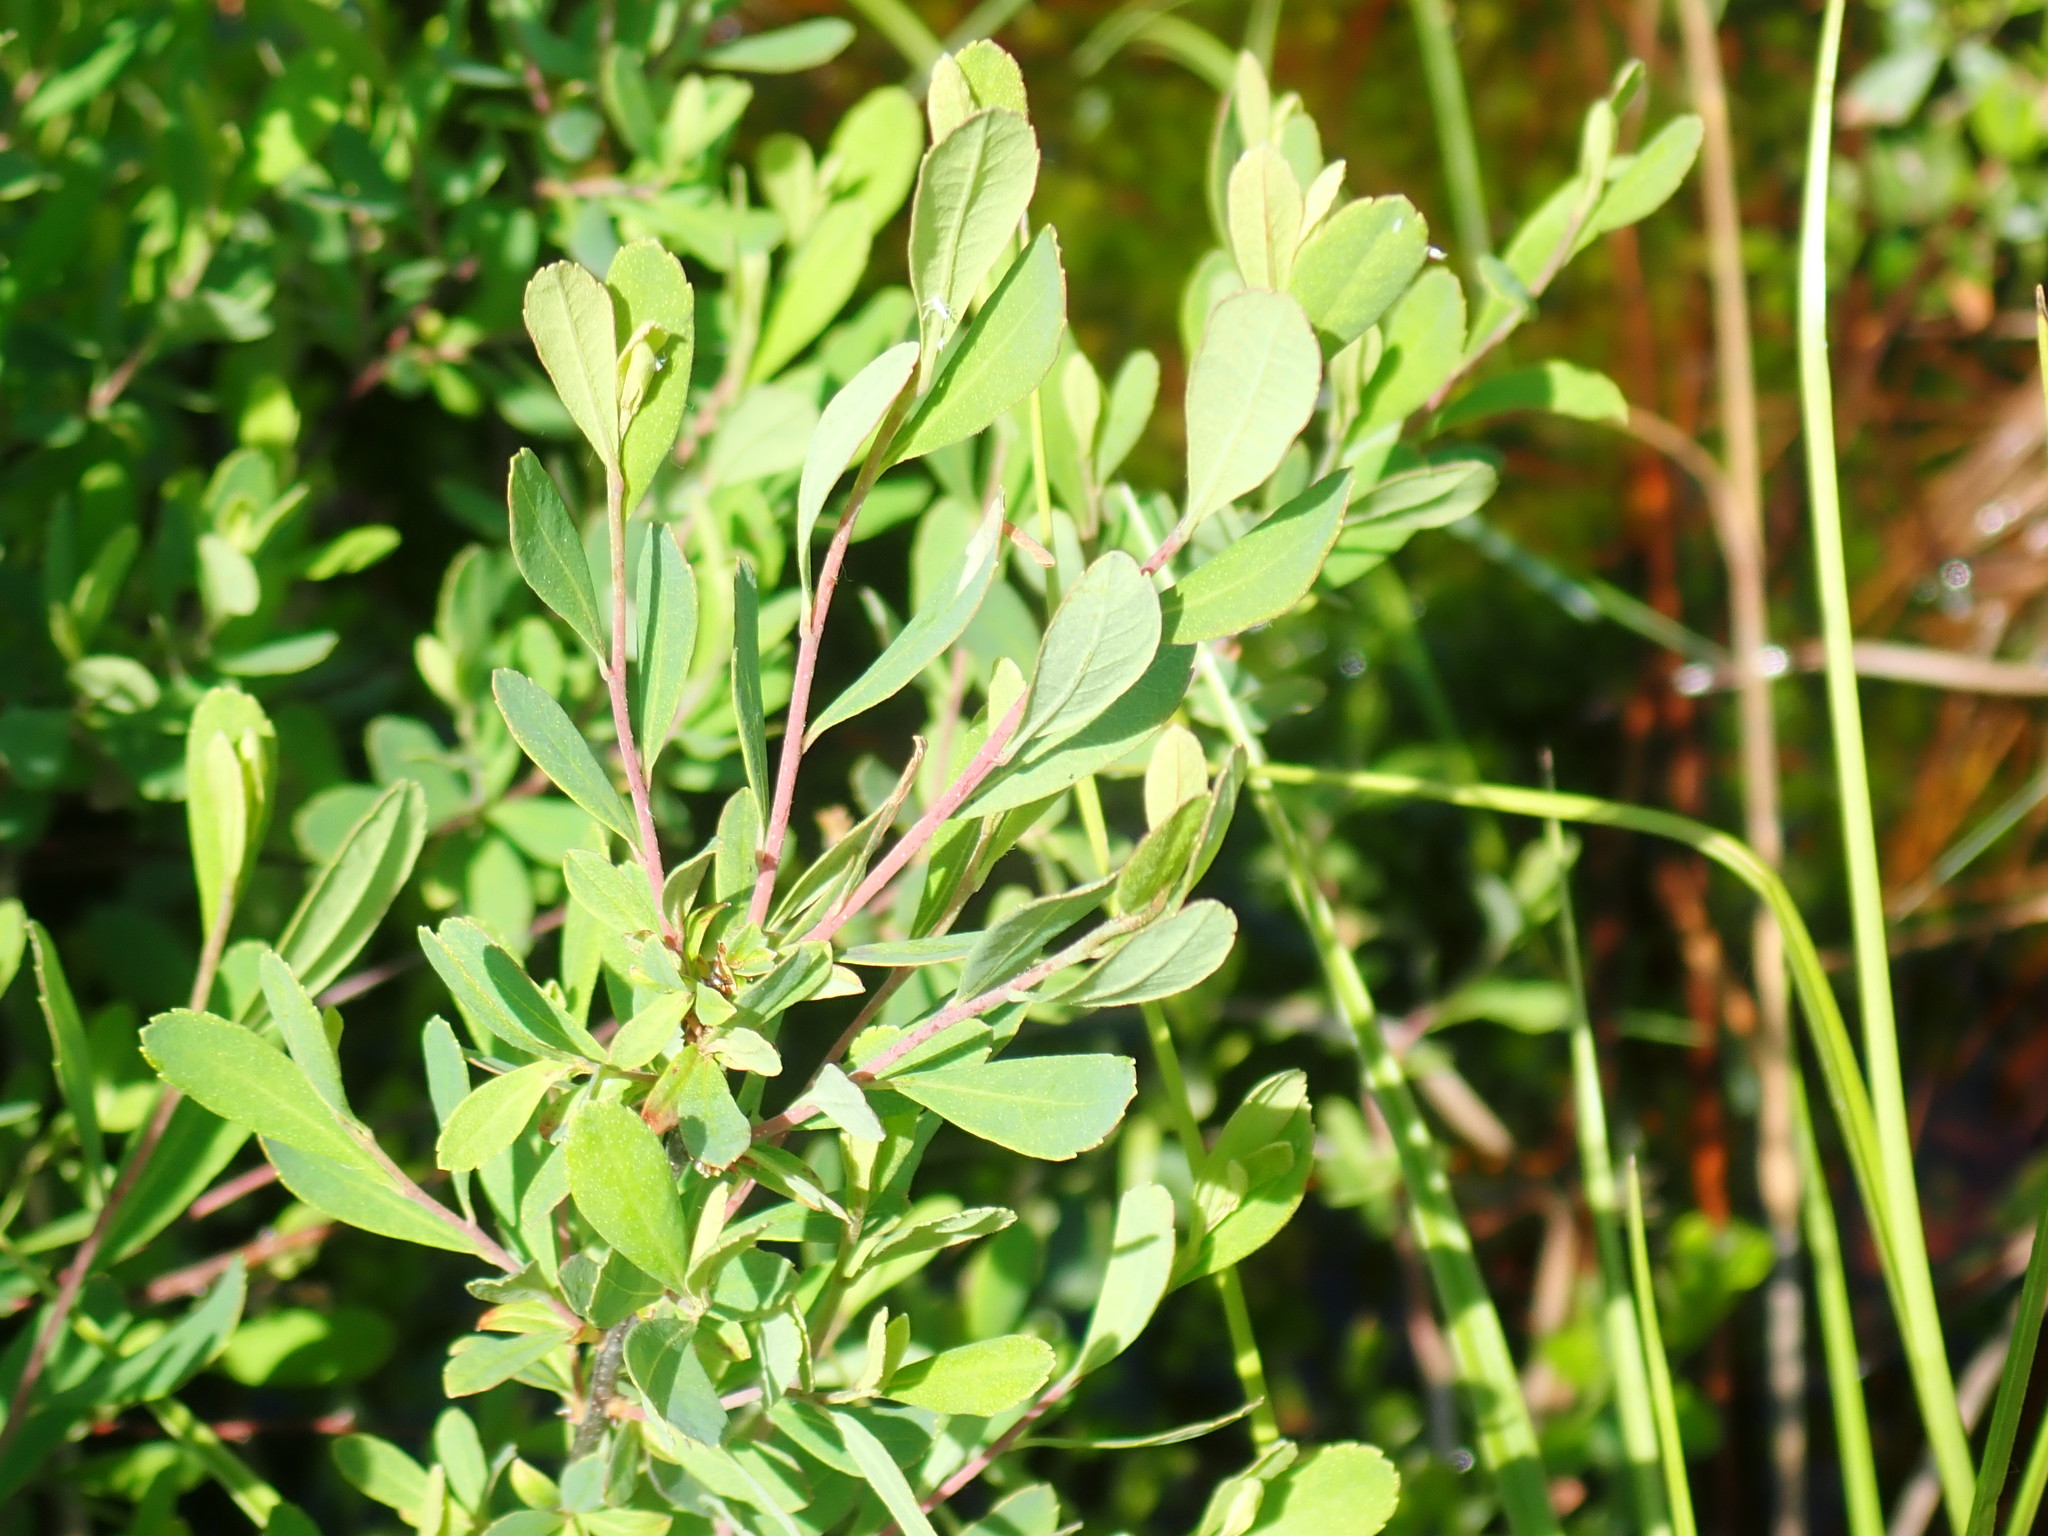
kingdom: Plantae
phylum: Tracheophyta
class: Magnoliopsida
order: Fagales
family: Myricaceae
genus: Myrica
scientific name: Myrica gale
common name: Sweet gale
